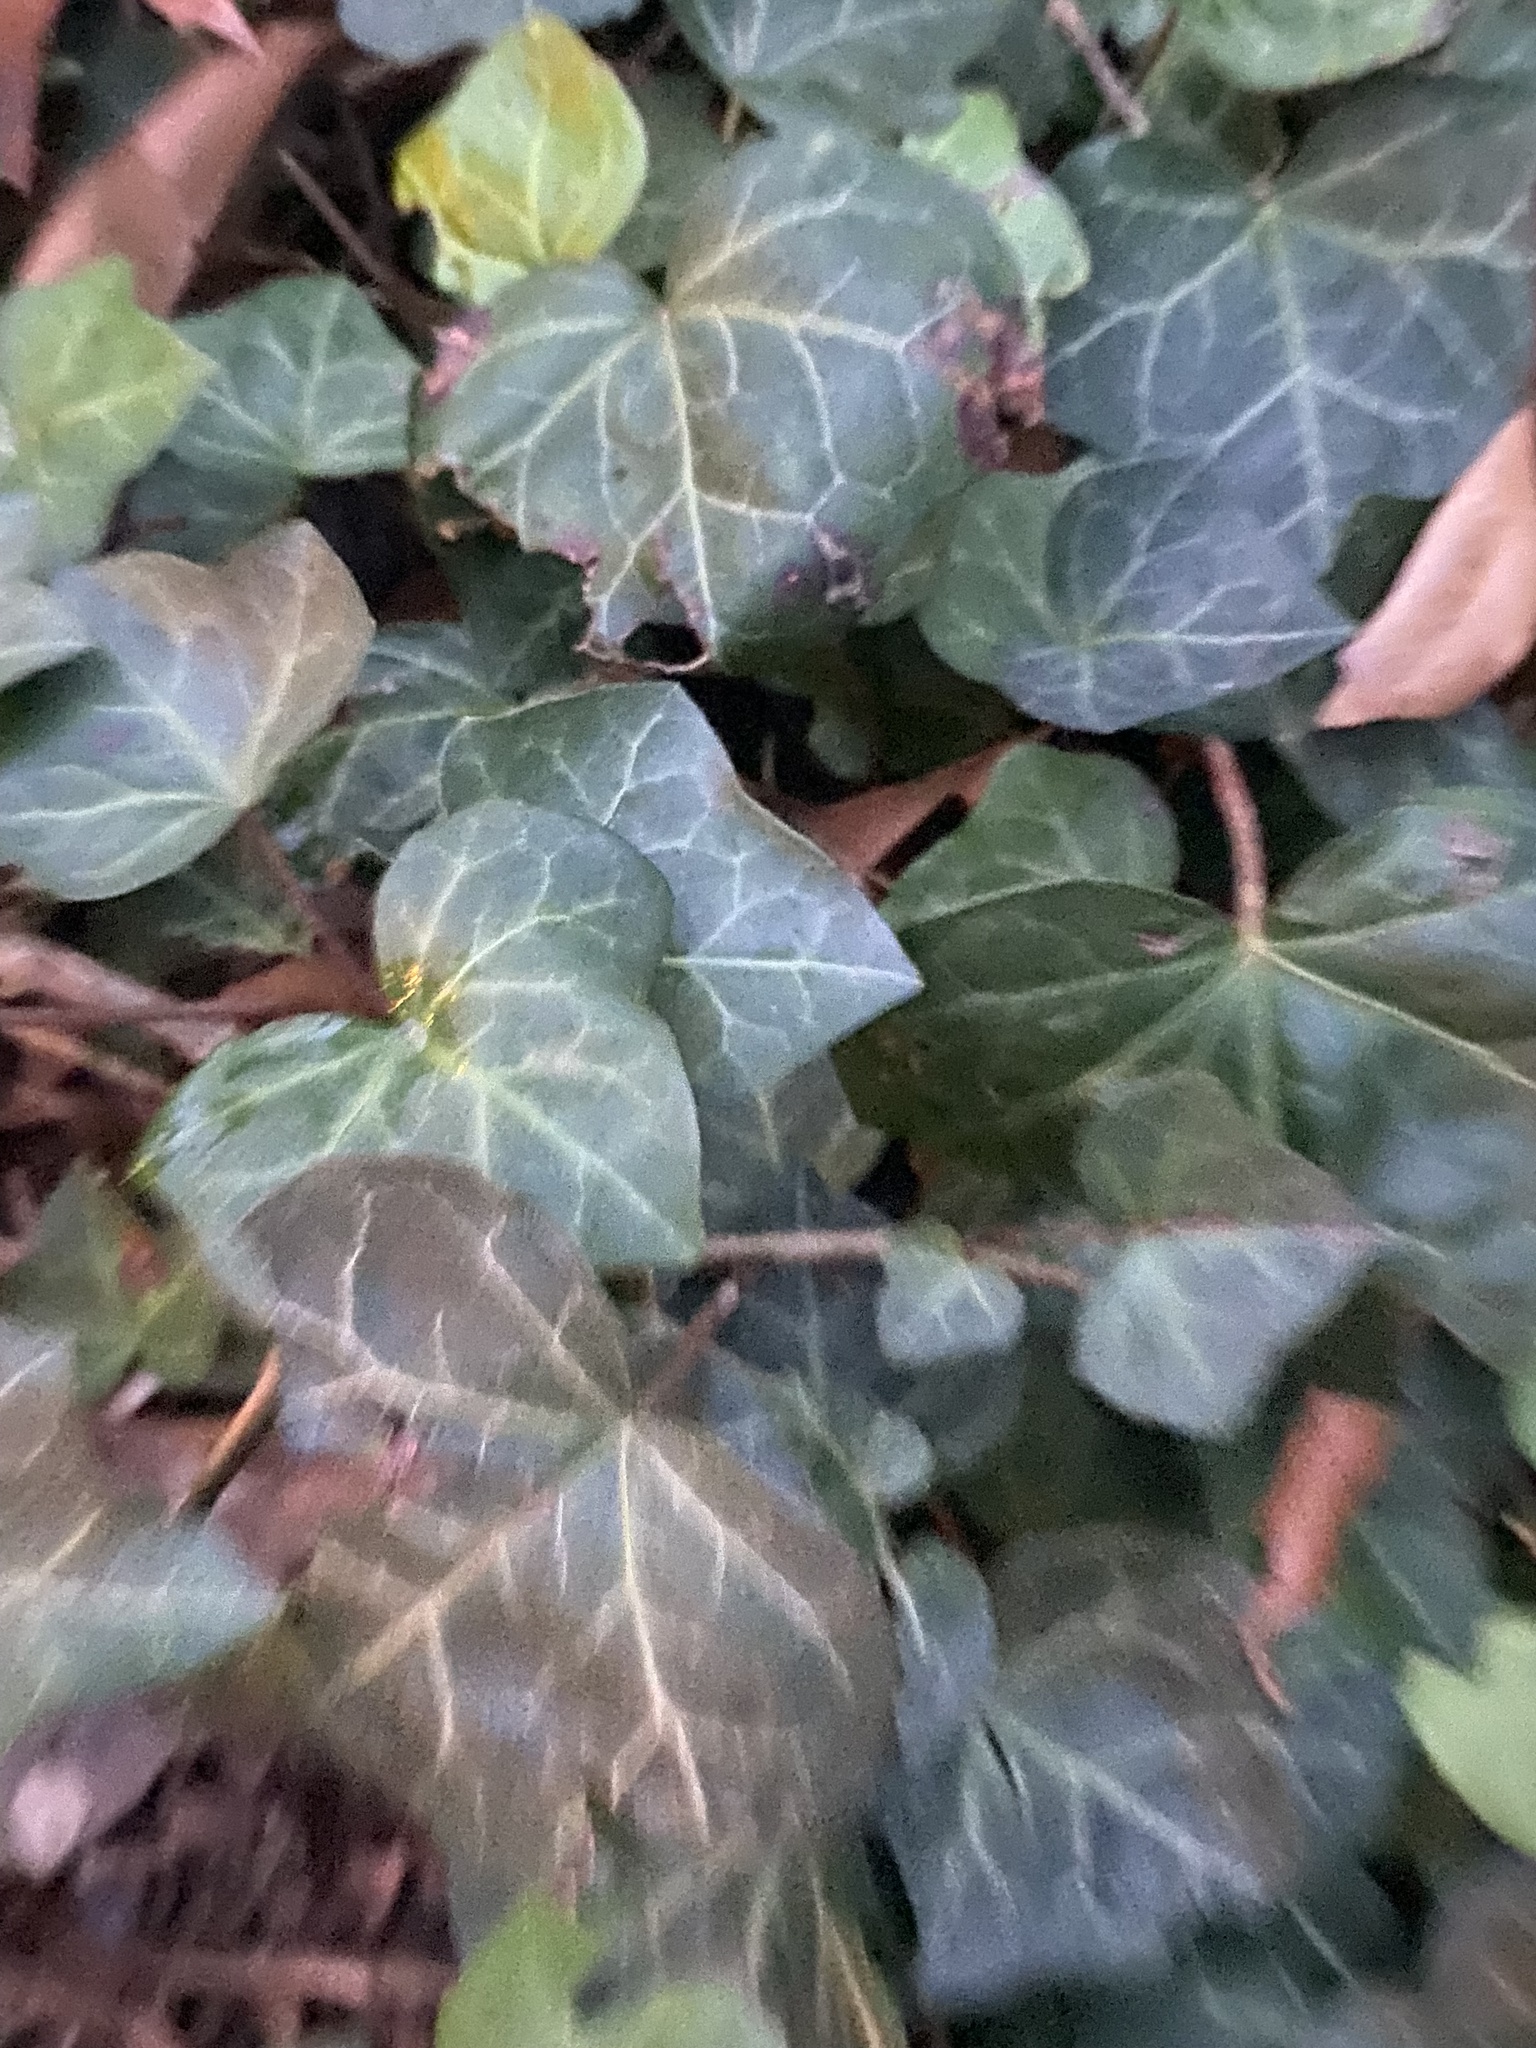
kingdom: Plantae
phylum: Tracheophyta
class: Magnoliopsida
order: Apiales
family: Araliaceae
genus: Hedera
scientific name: Hedera helix
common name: Ivy
